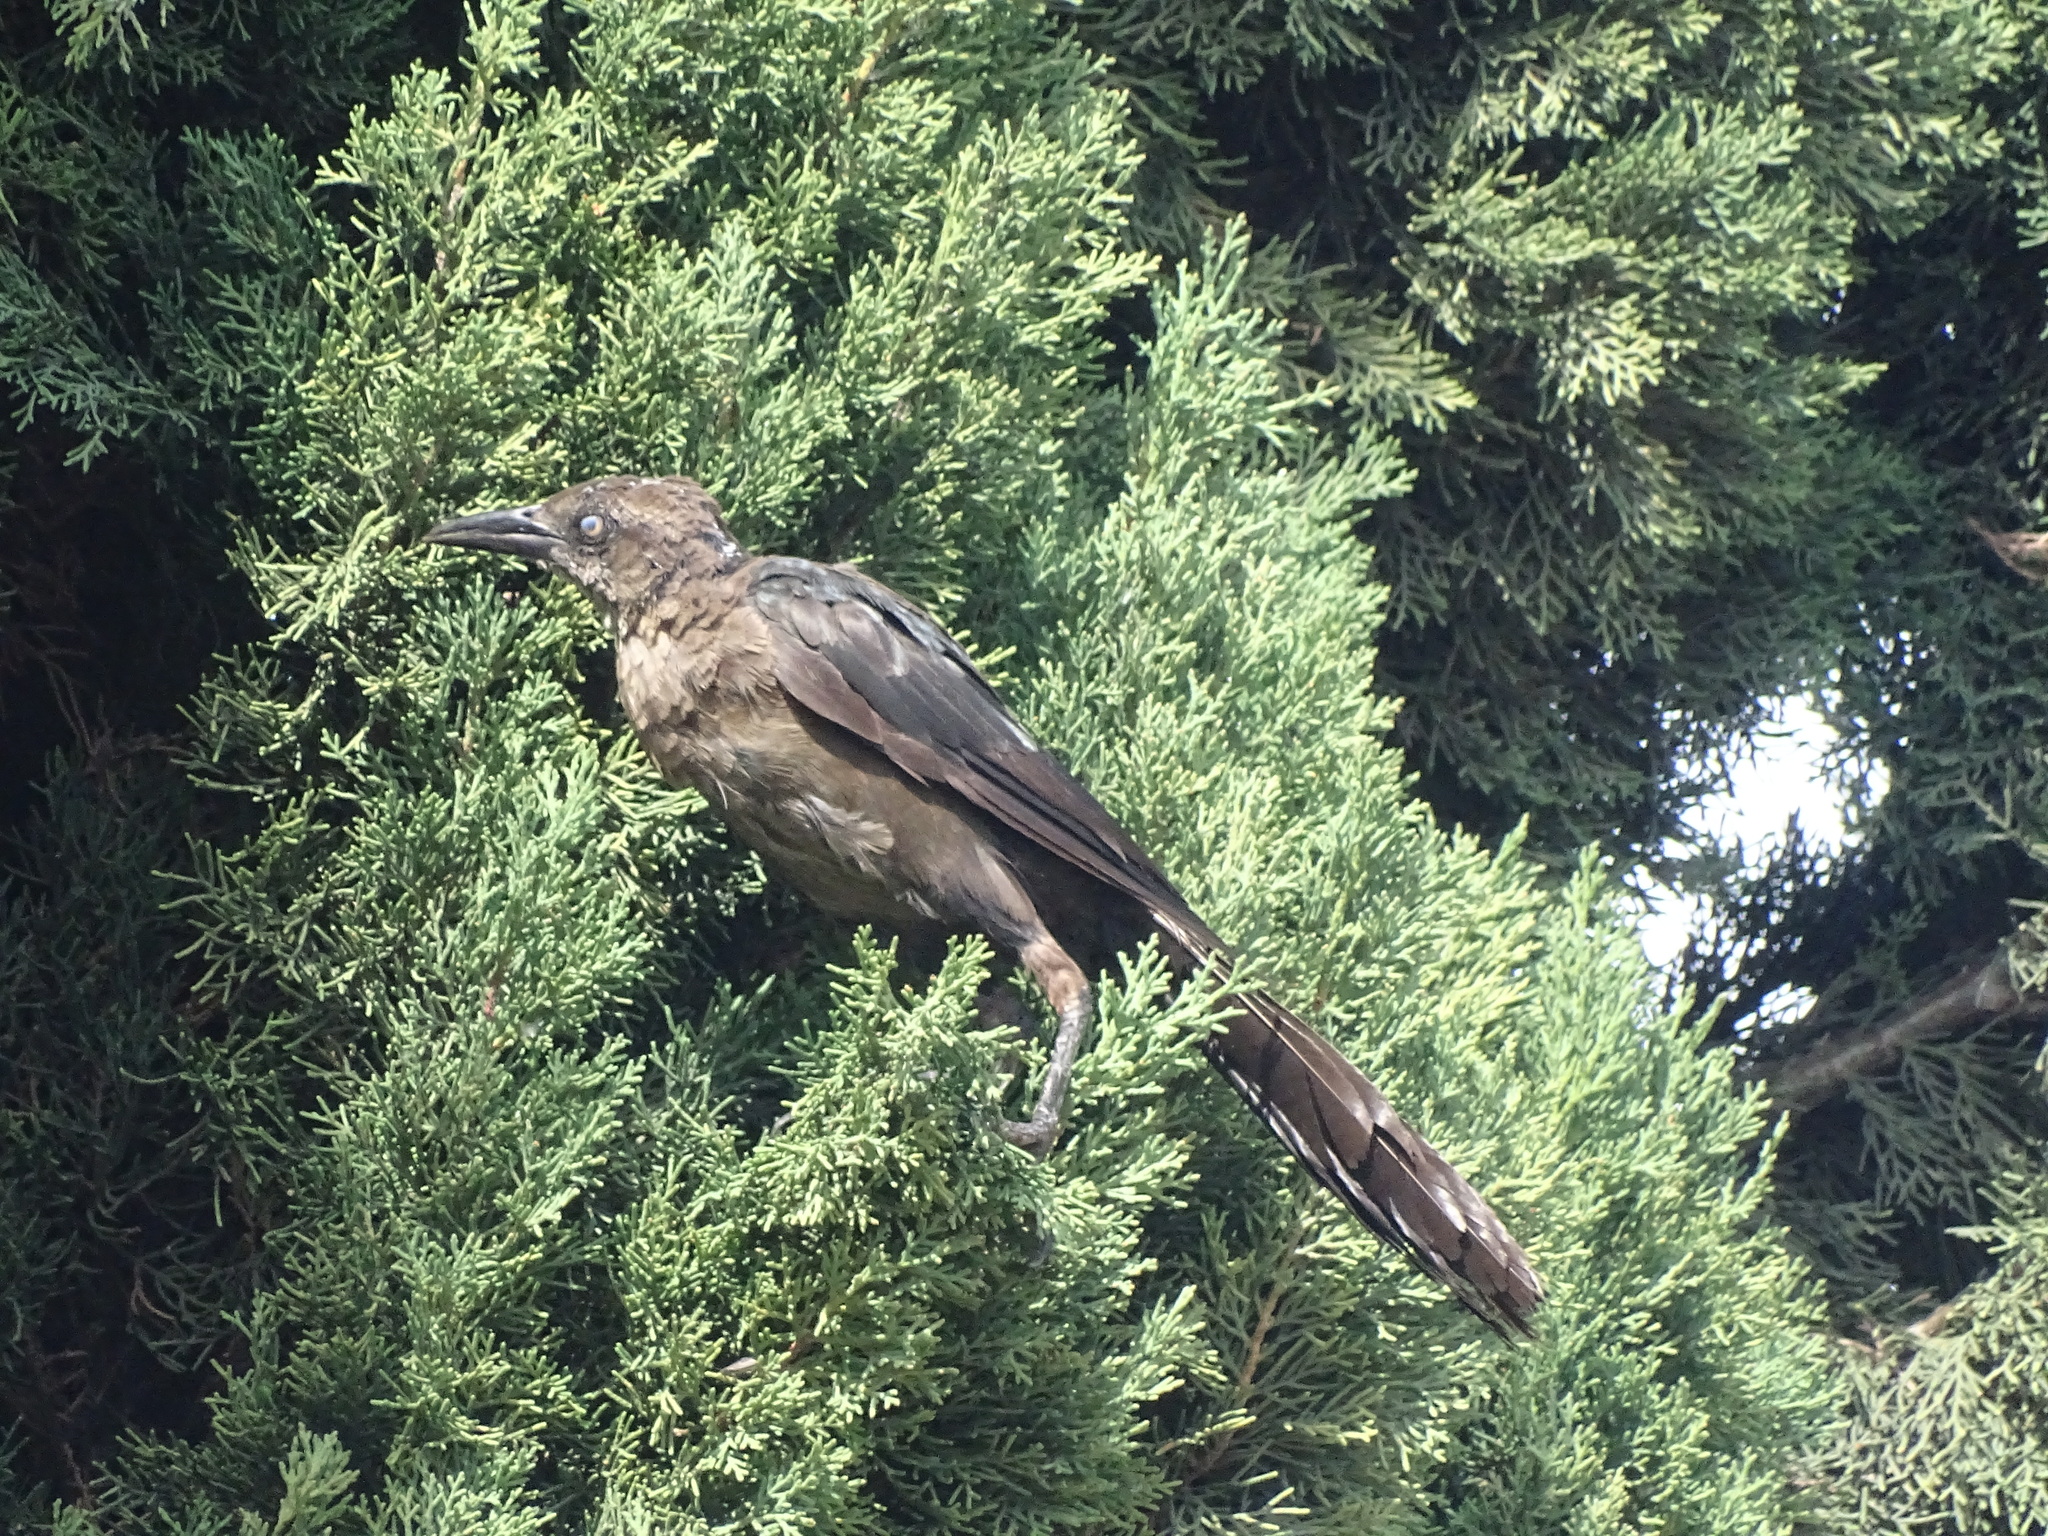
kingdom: Animalia
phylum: Chordata
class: Aves
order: Passeriformes
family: Icteridae
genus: Quiscalus
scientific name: Quiscalus mexicanus
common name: Great-tailed grackle
